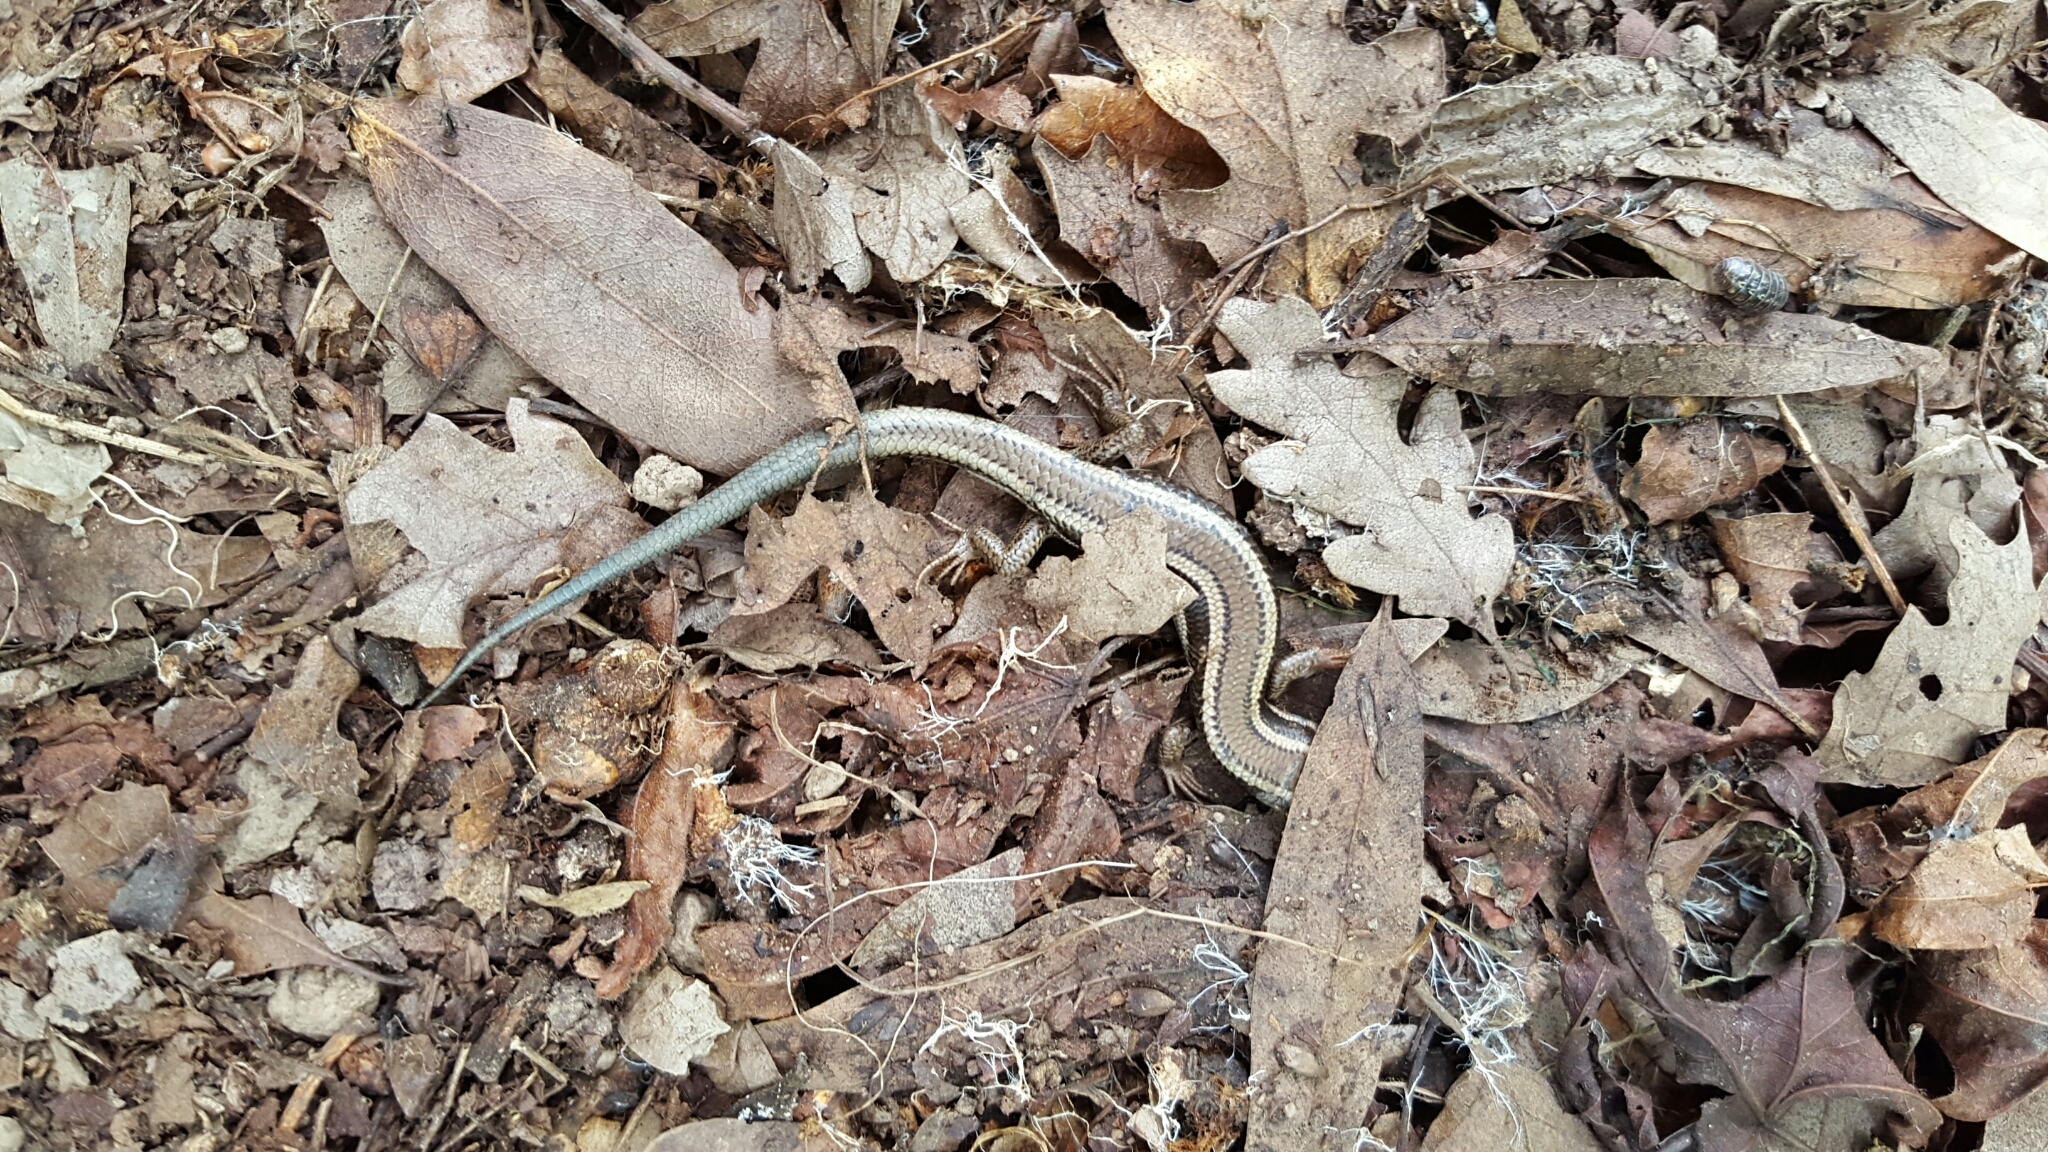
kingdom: Animalia
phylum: Chordata
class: Squamata
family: Scincidae
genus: Plestiodon
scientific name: Plestiodon skiltonianus
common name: Coronado island skink [interparietalis]
